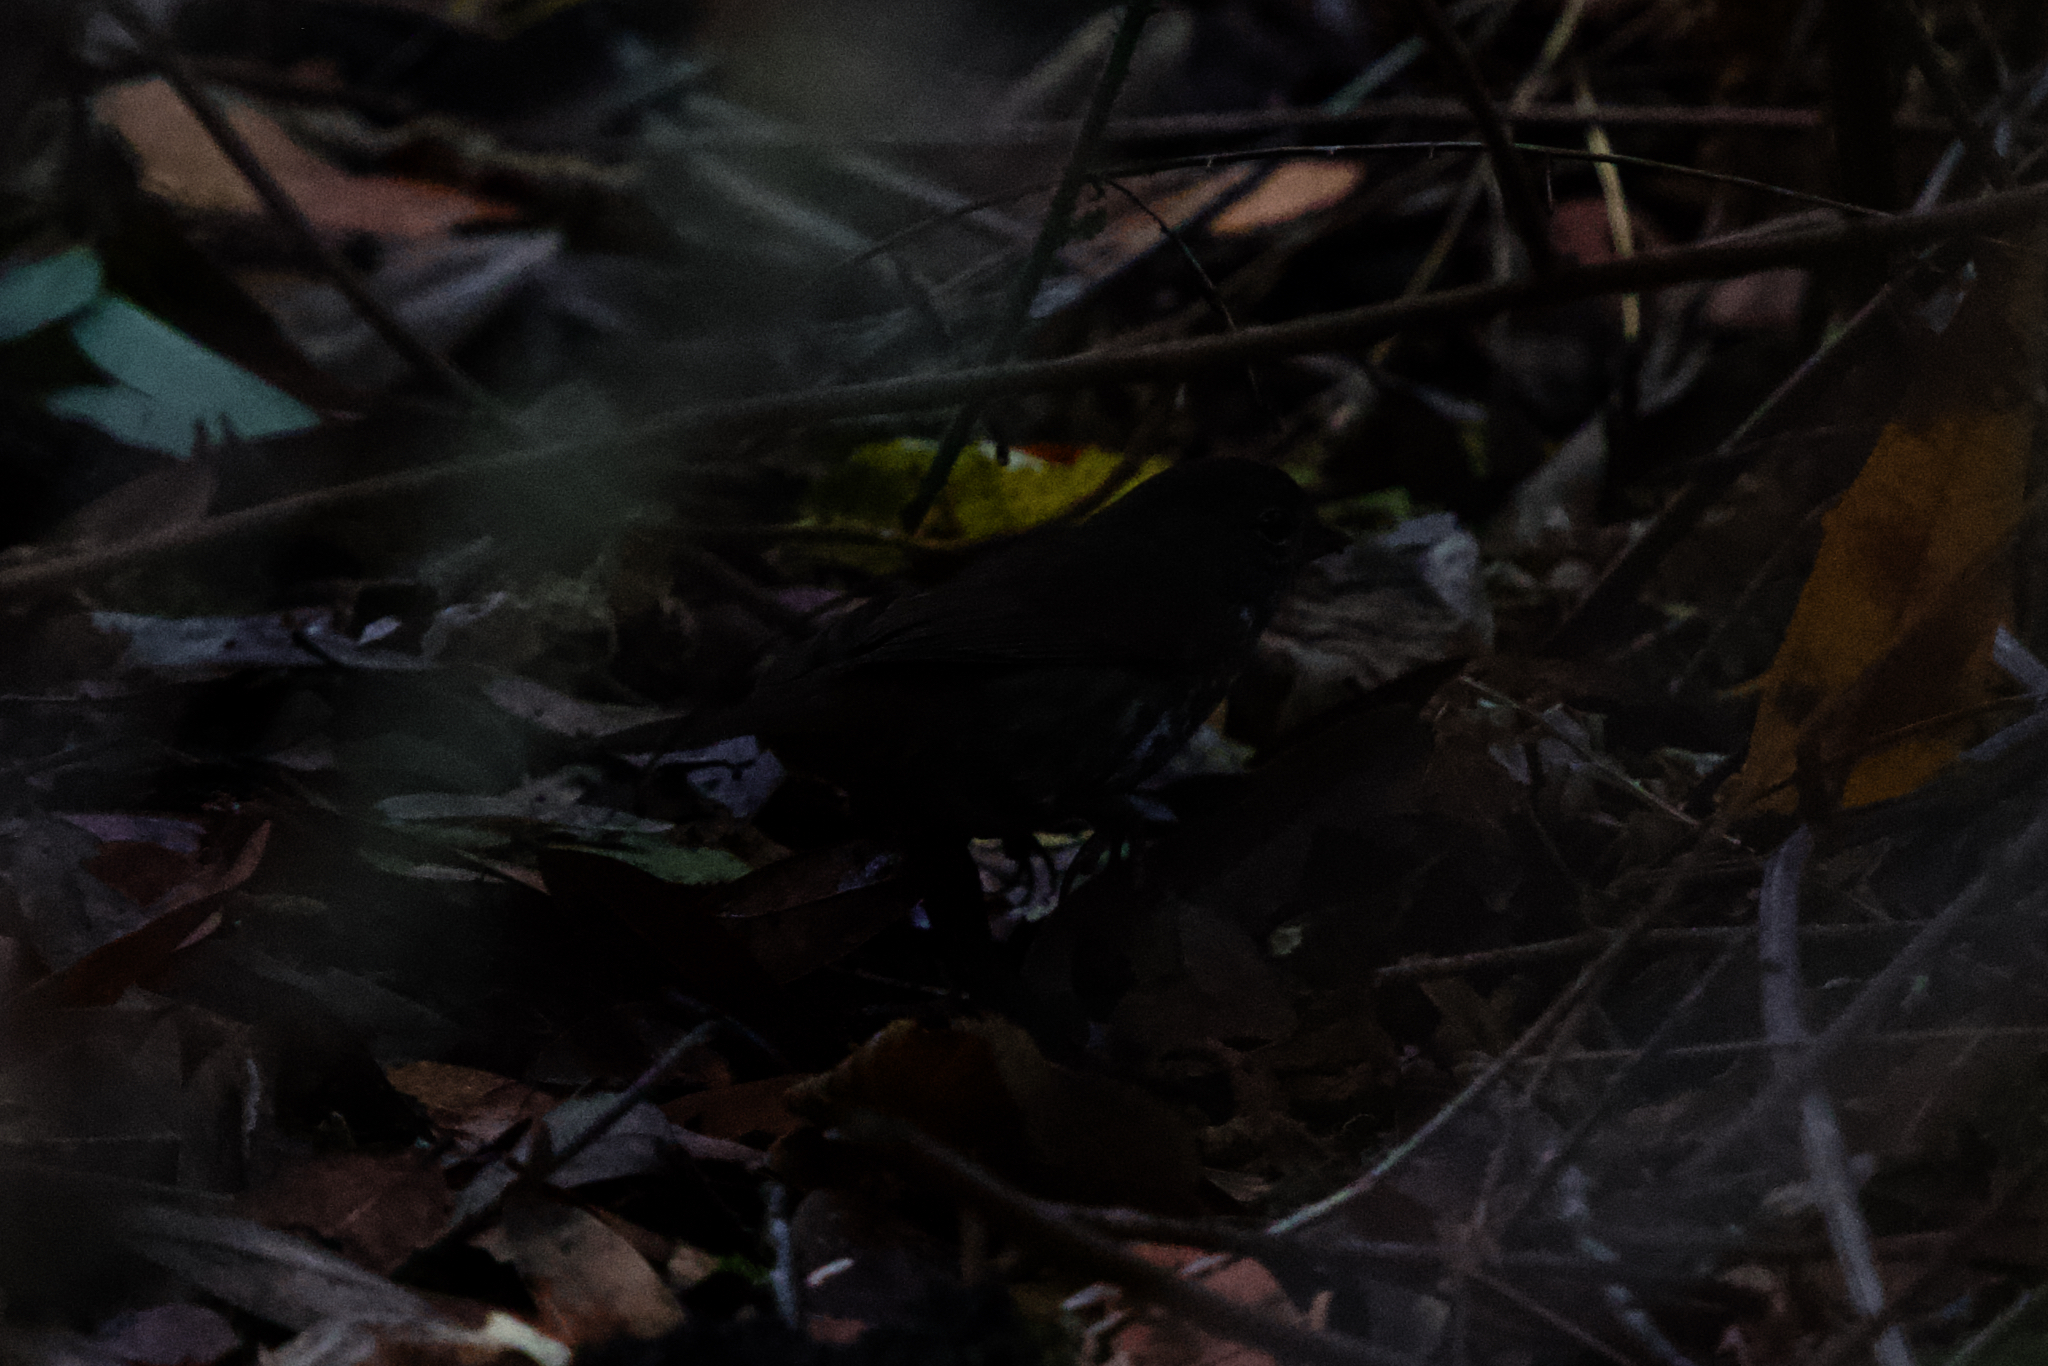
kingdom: Animalia
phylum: Chordata
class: Aves
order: Passeriformes
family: Passerellidae
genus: Passerella
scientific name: Passerella iliaca
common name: Fox sparrow
